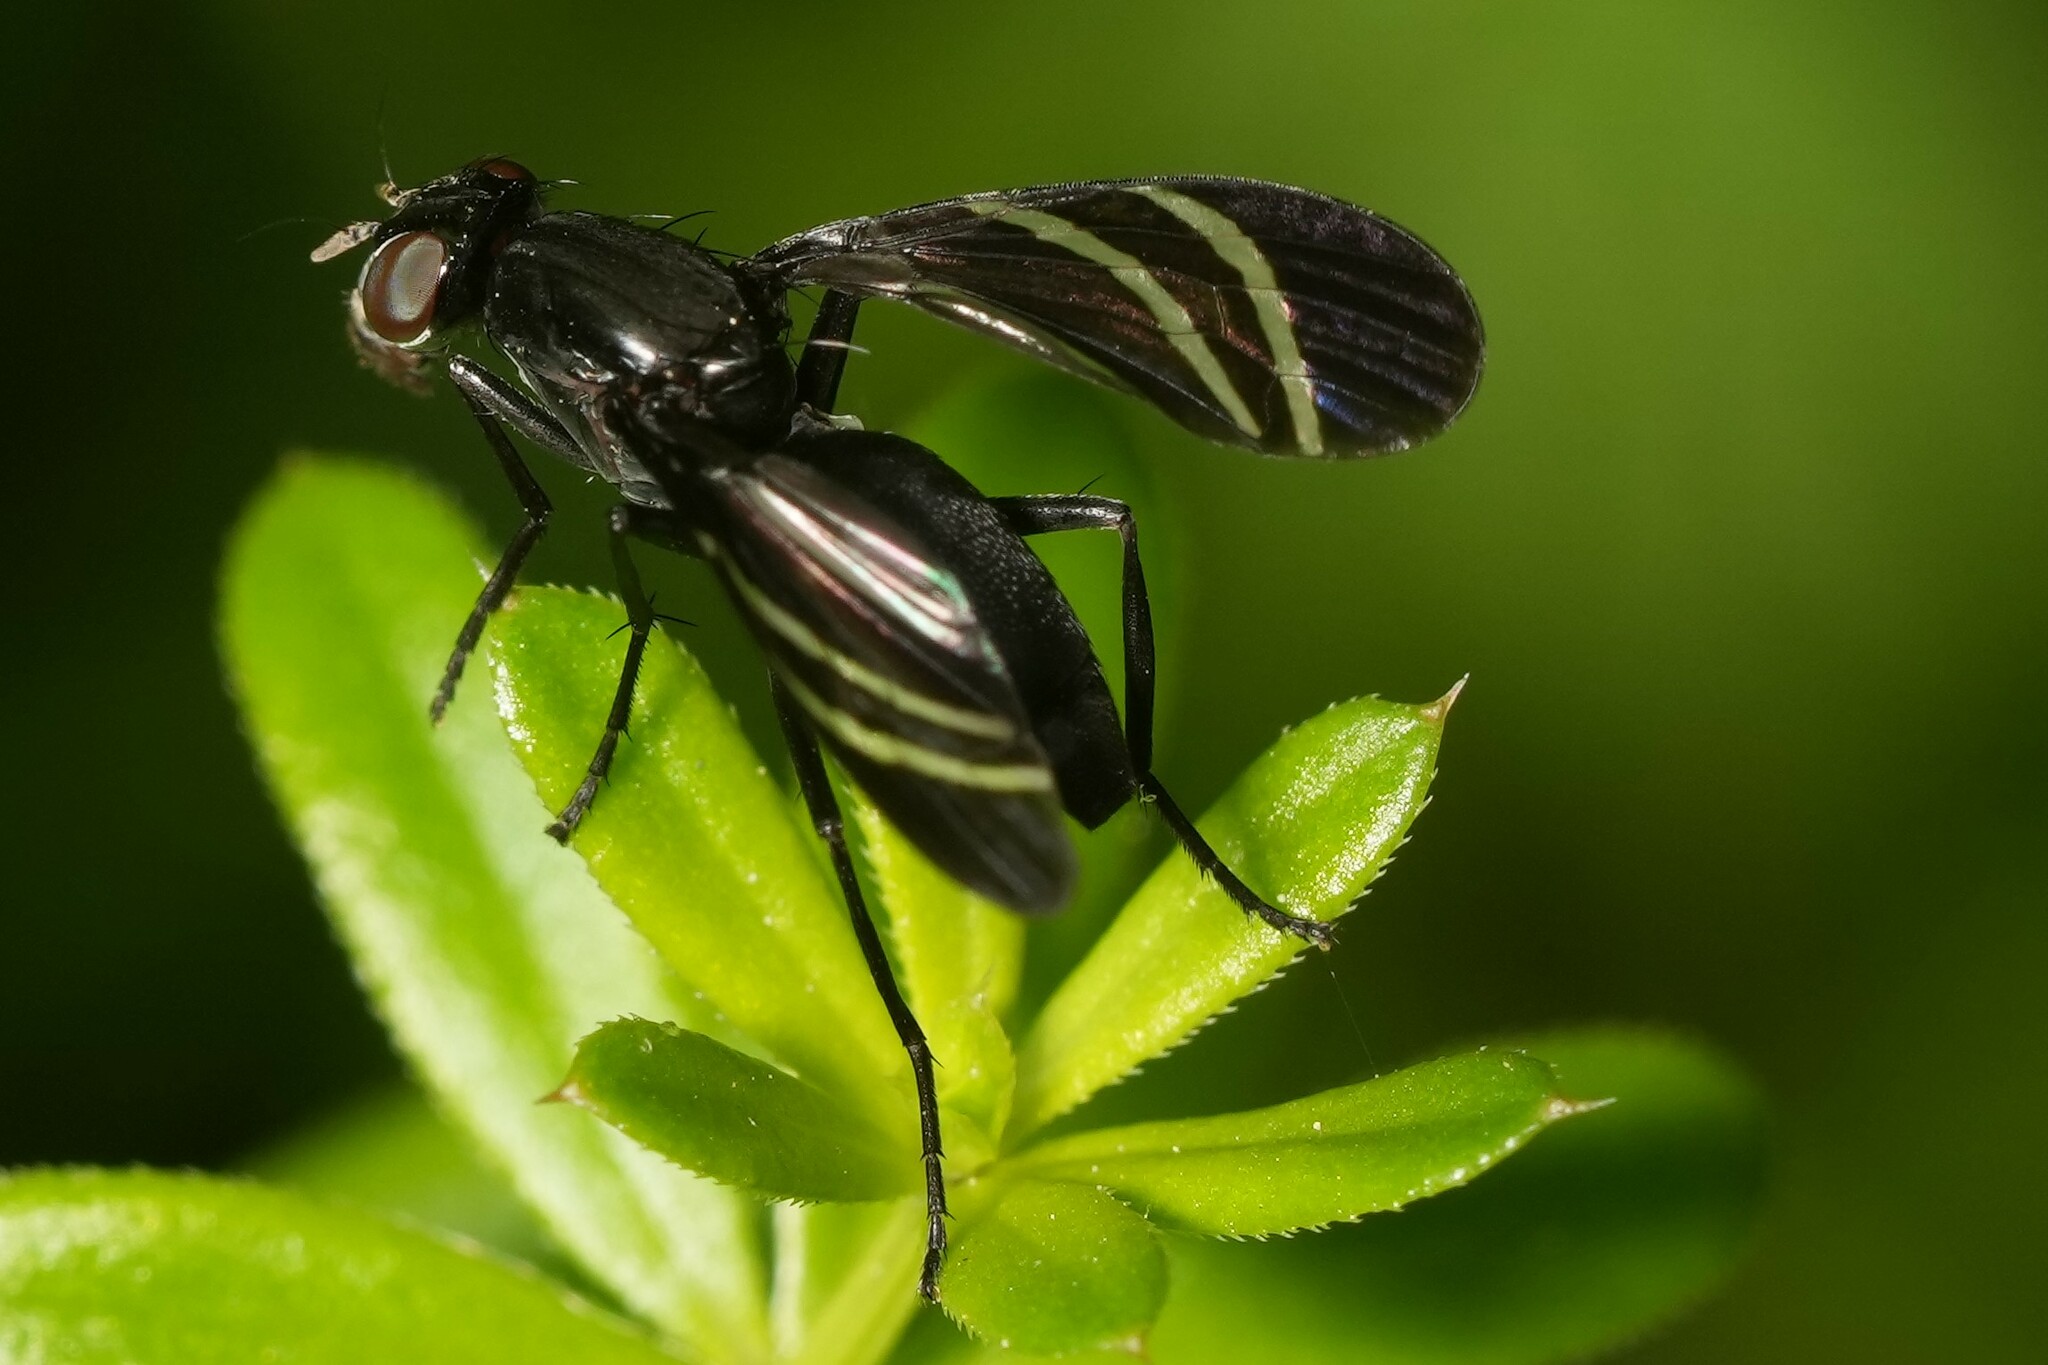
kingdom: Animalia
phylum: Arthropoda
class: Insecta
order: Diptera
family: Ulidiidae
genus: Tritoxa
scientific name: Tritoxa flexa
